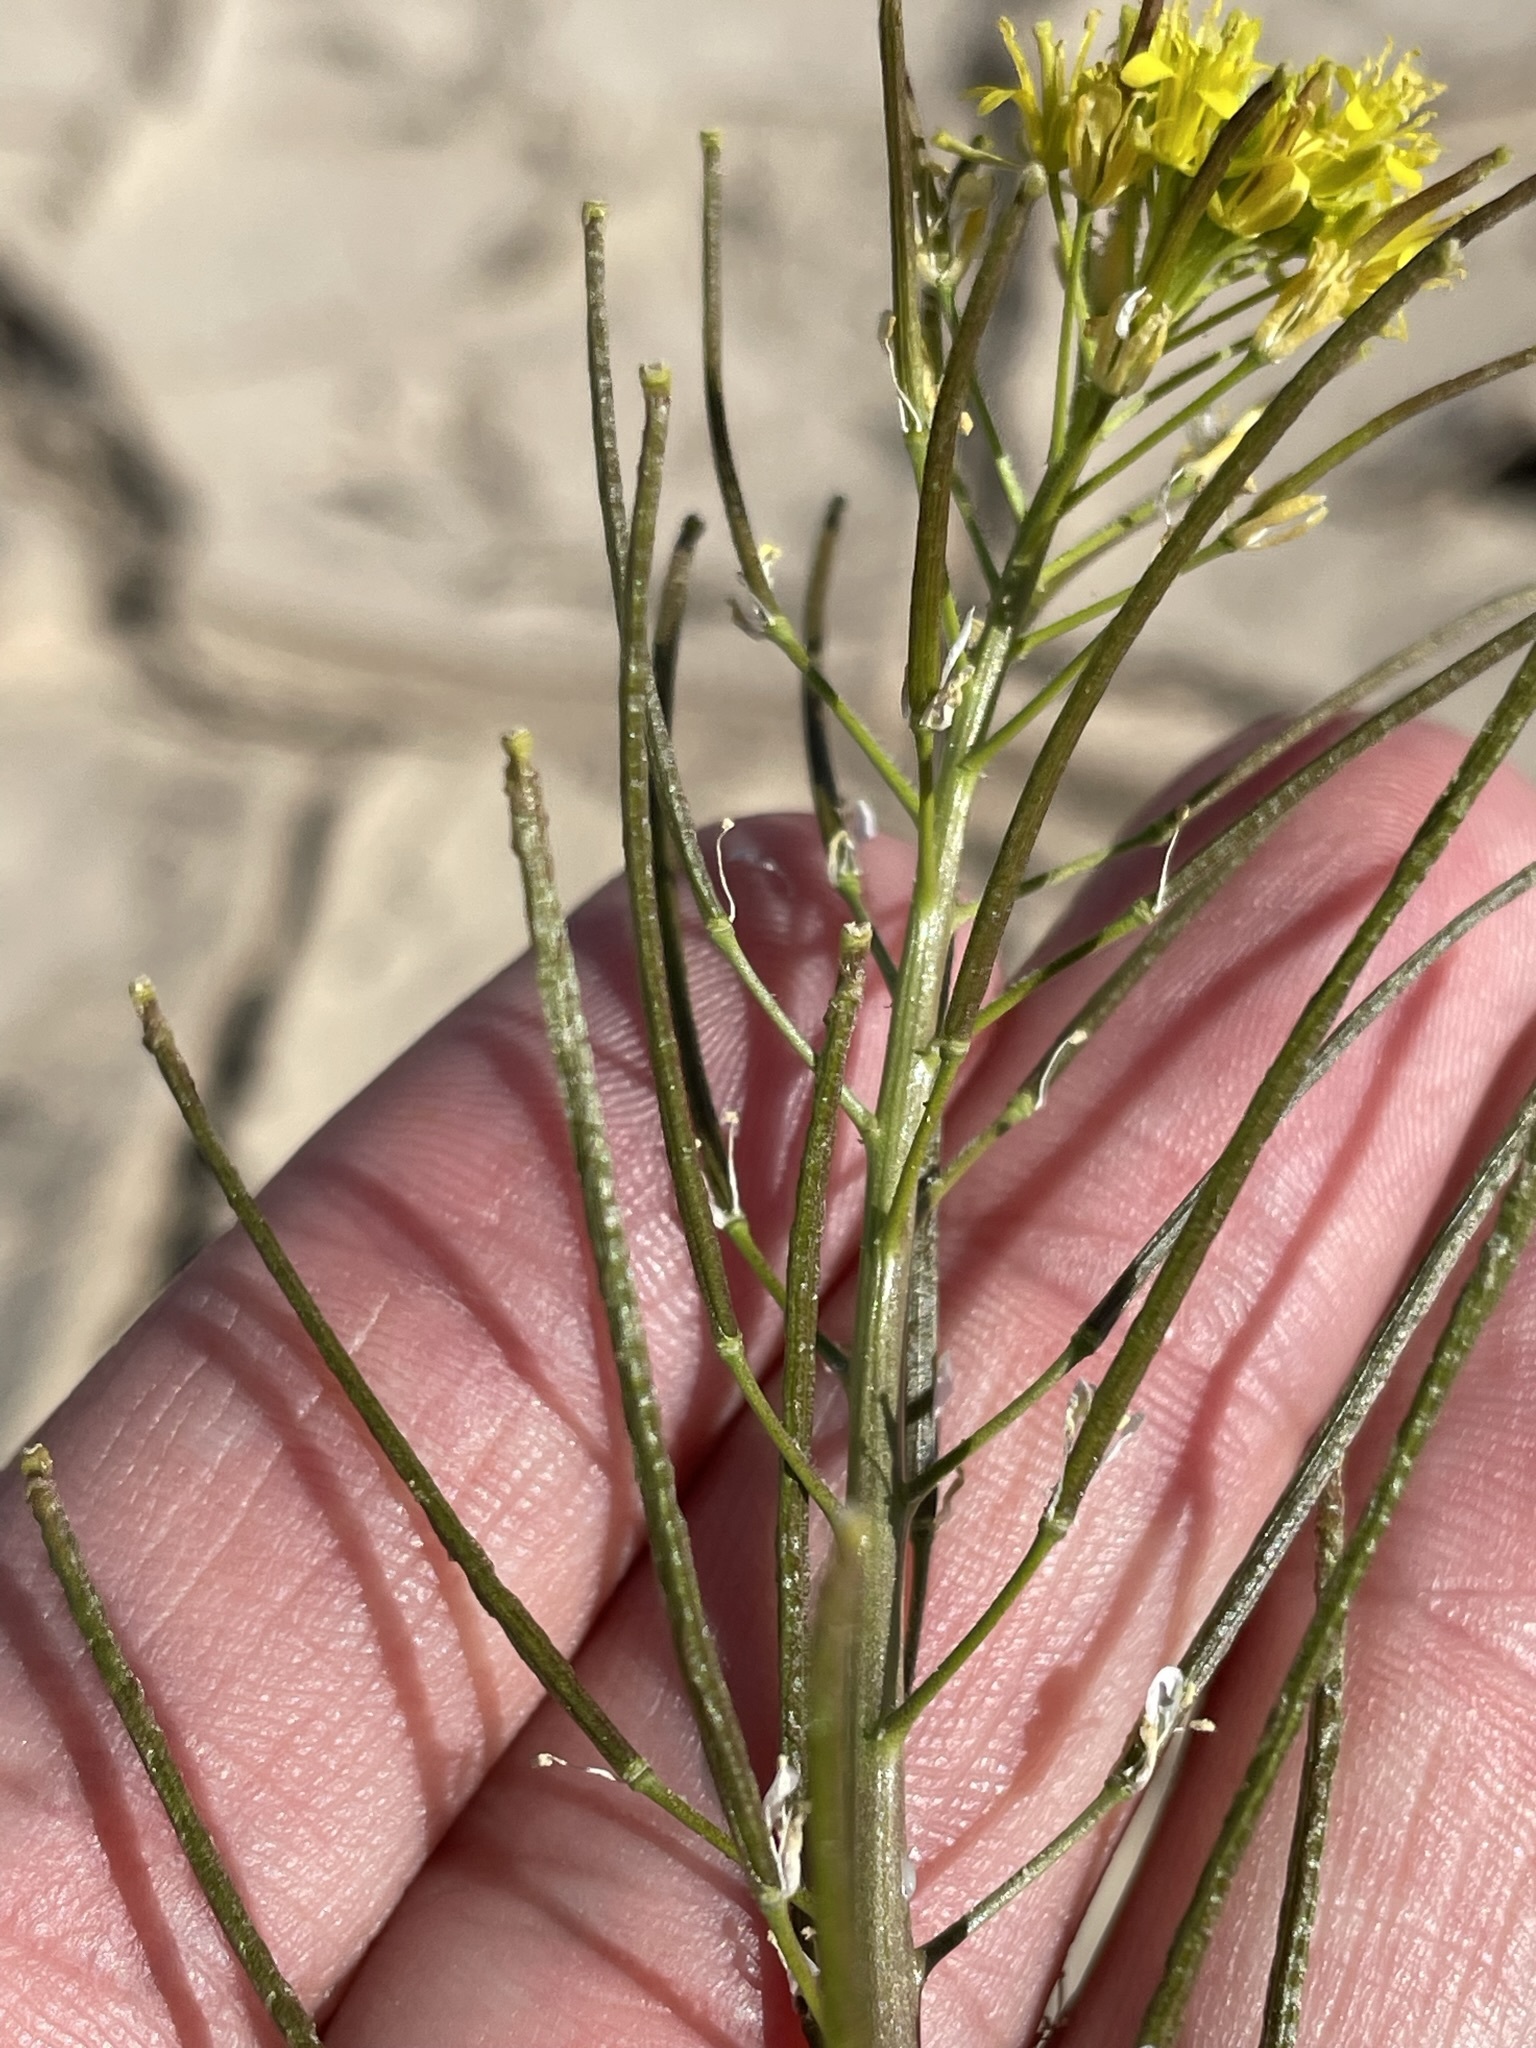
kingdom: Plantae
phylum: Tracheophyta
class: Magnoliopsida
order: Brassicales
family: Brassicaceae
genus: Sisymbrium
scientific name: Sisymbrium irio
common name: London rocket
